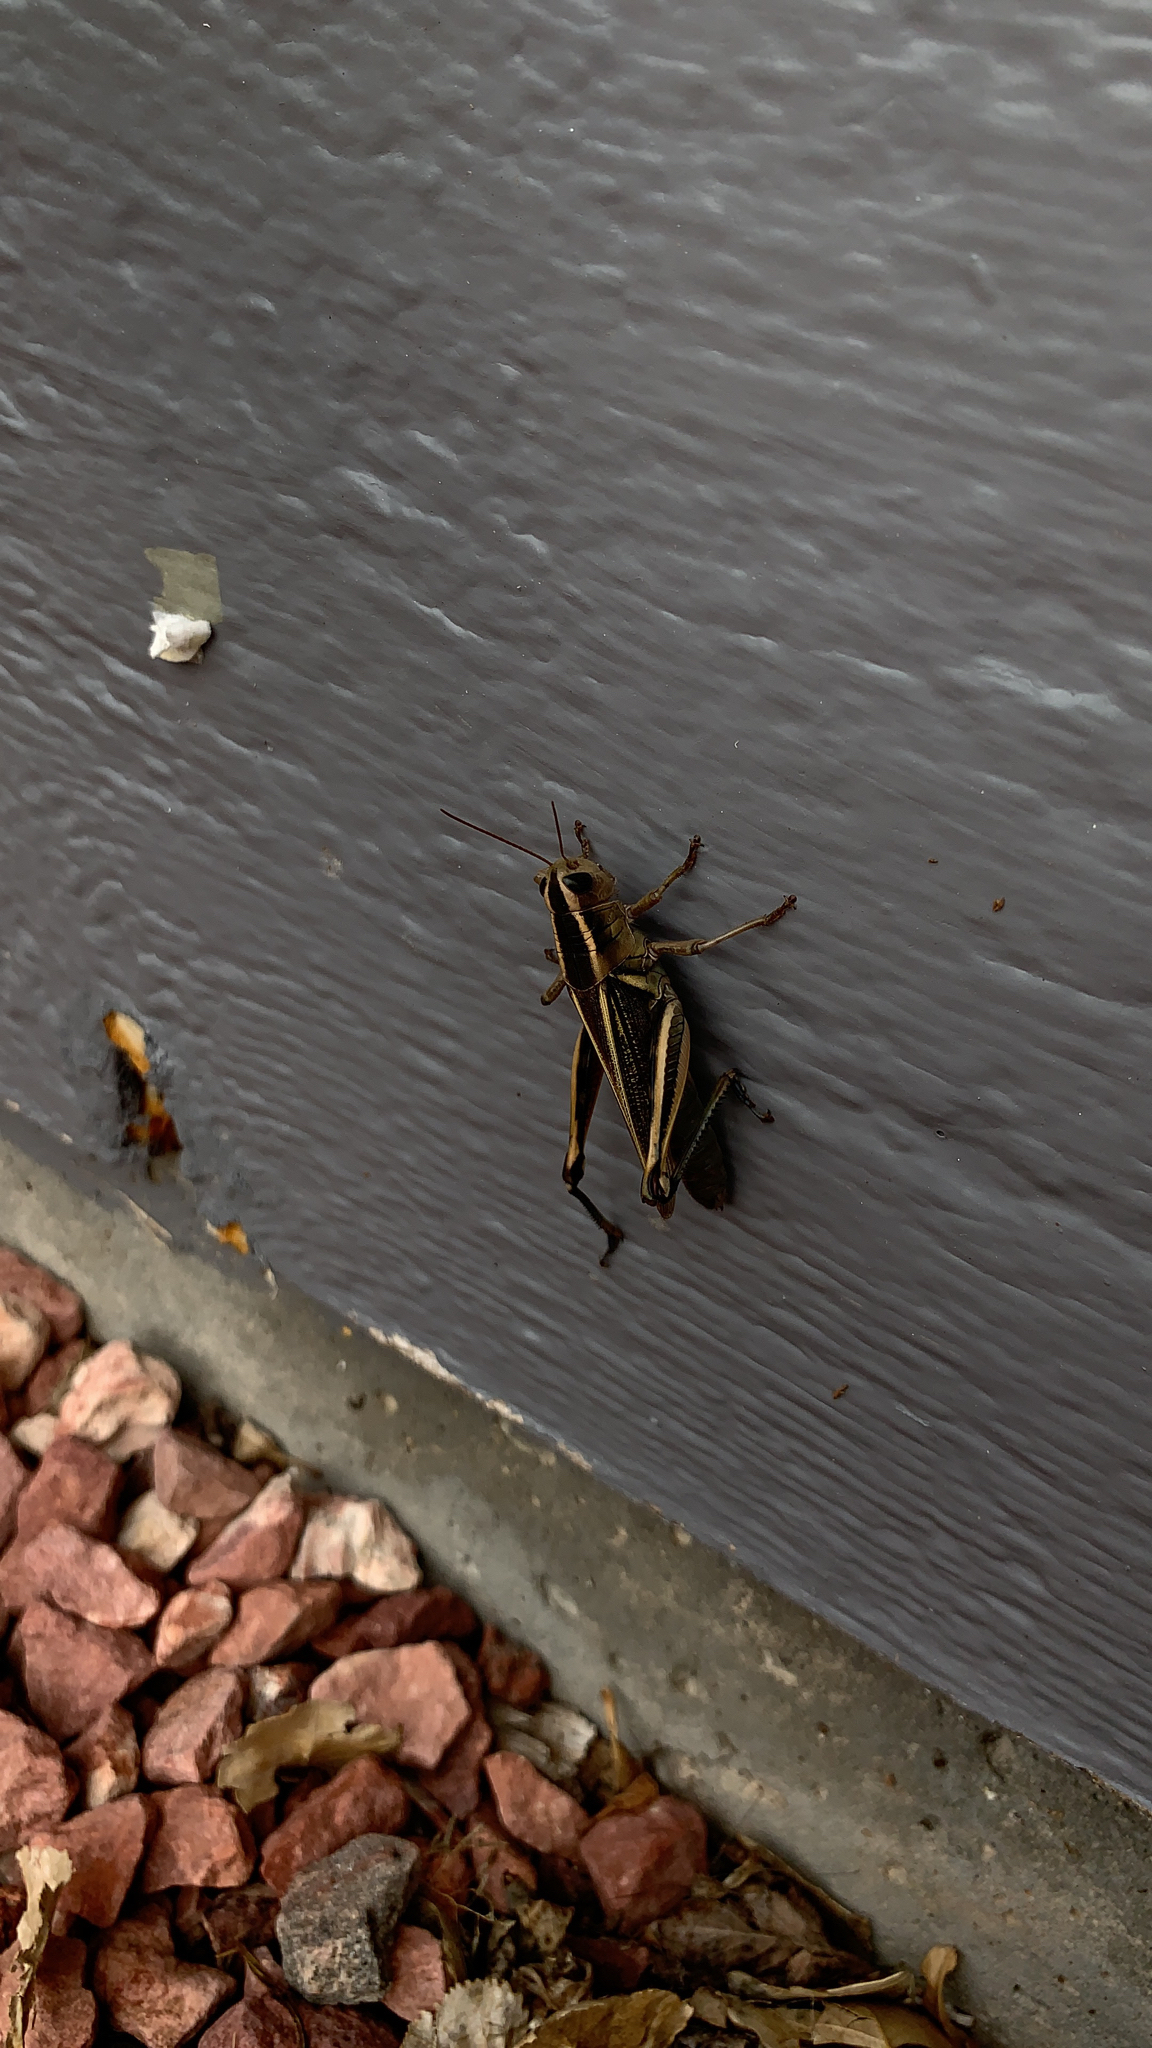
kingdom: Animalia
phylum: Arthropoda
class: Insecta
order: Orthoptera
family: Acrididae
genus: Melanoplus
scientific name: Melanoplus bivittatus
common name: Two-striped grasshopper
